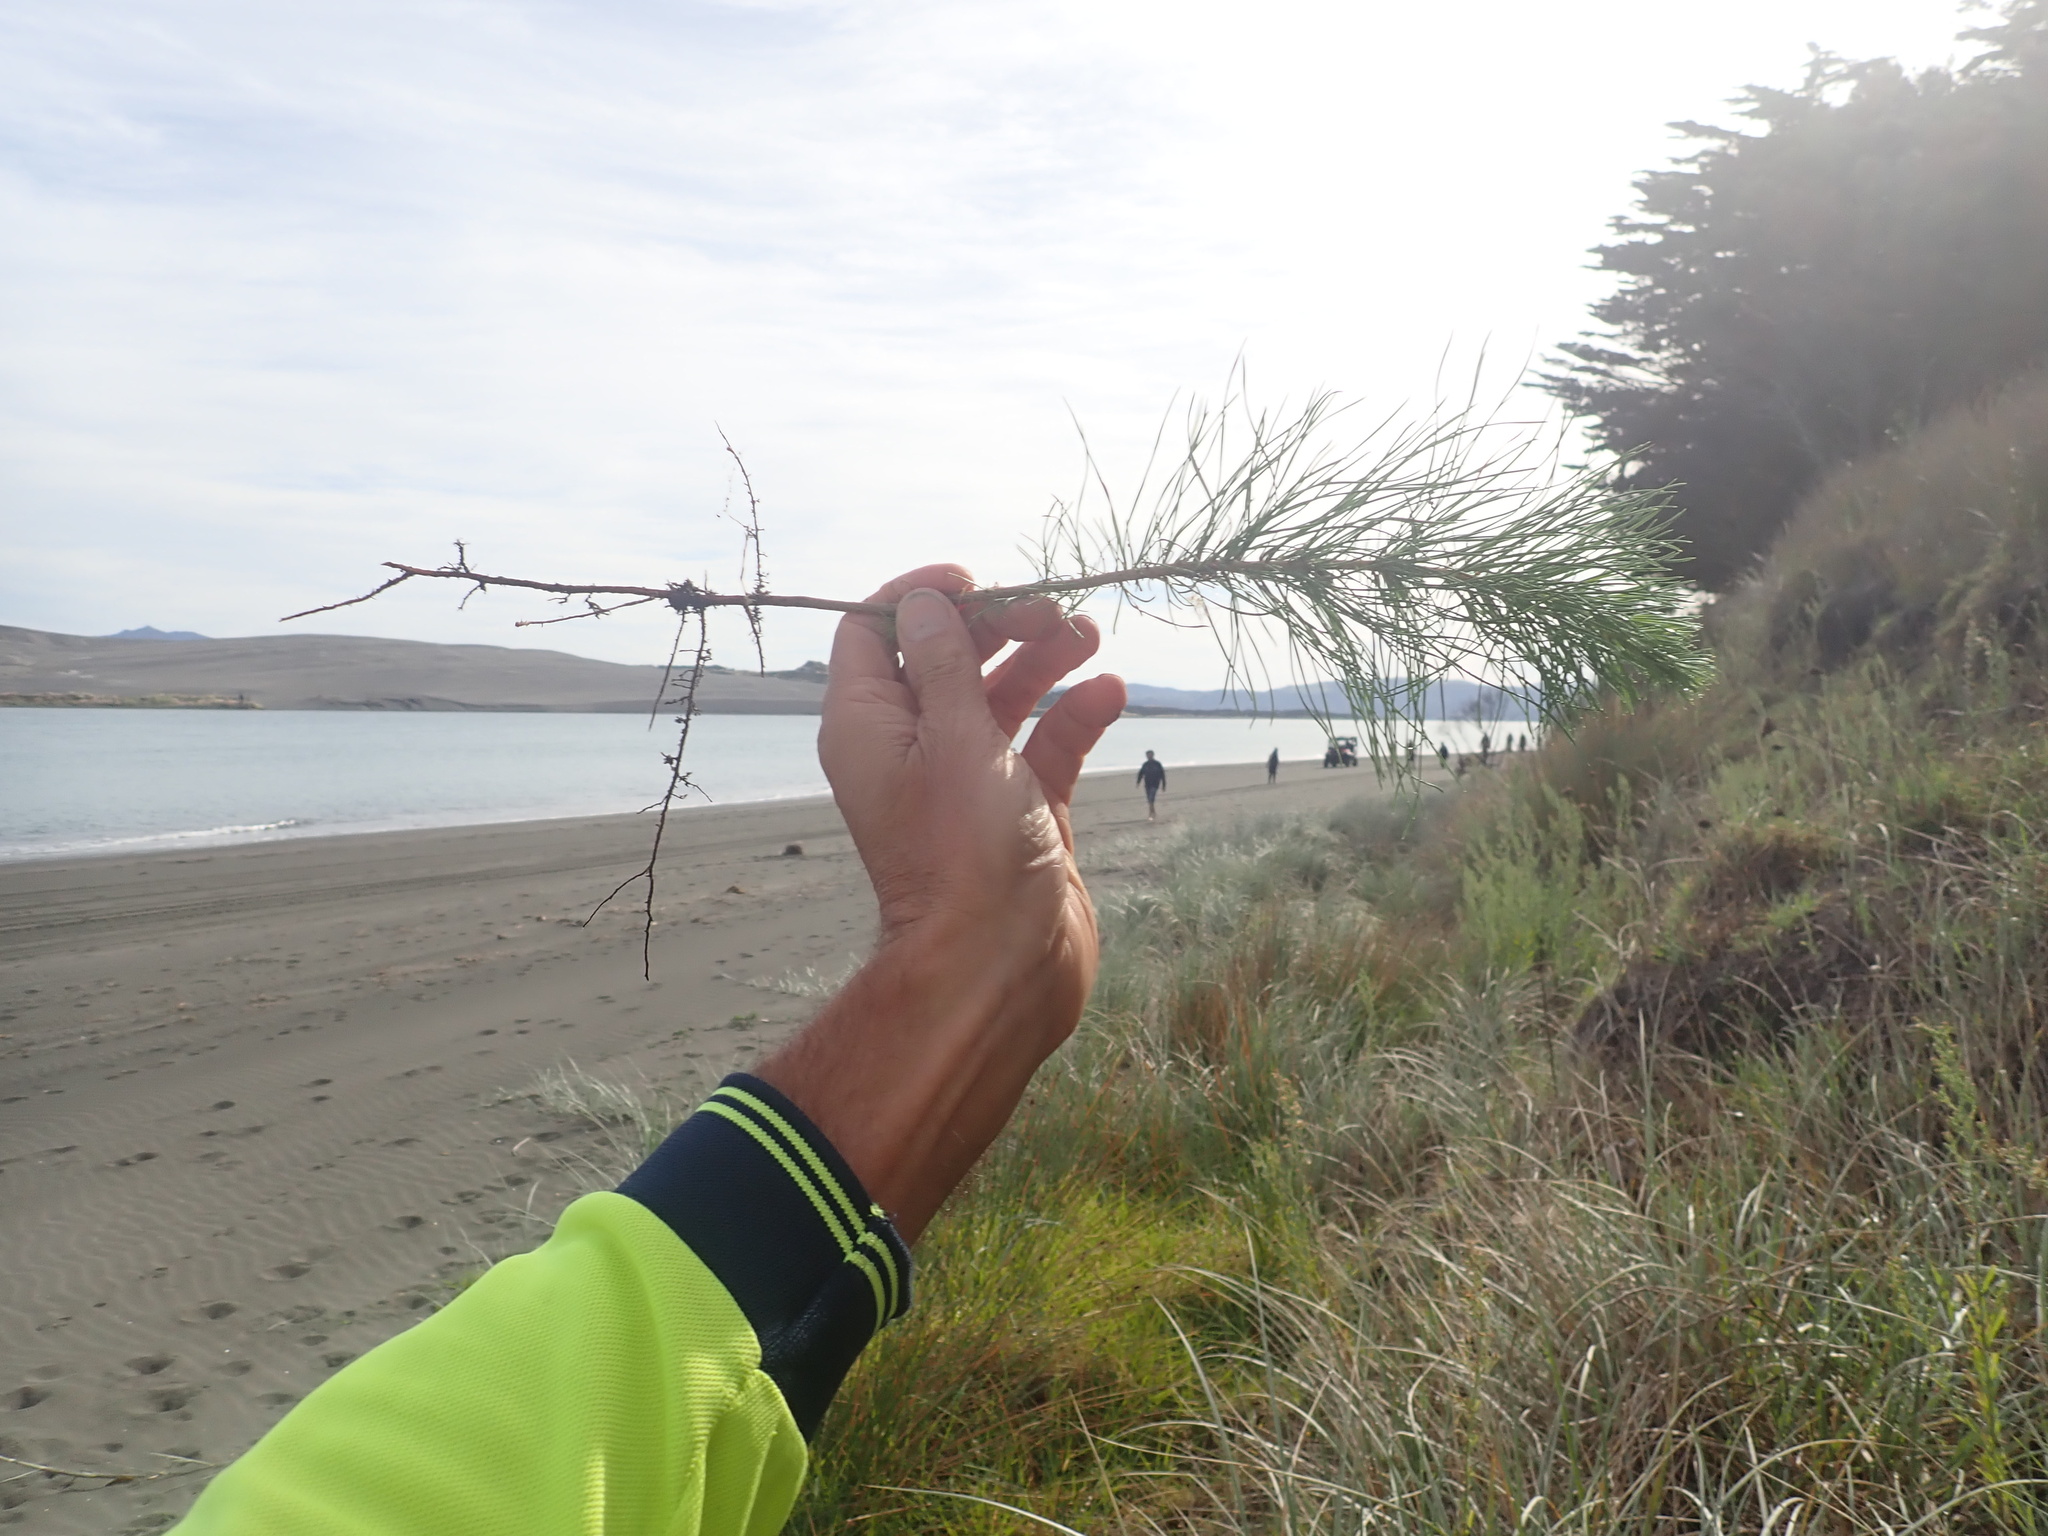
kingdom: Plantae
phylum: Tracheophyta
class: Pinopsida
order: Pinales
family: Pinaceae
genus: Pinus
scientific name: Pinus radiata
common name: Monterey pine
